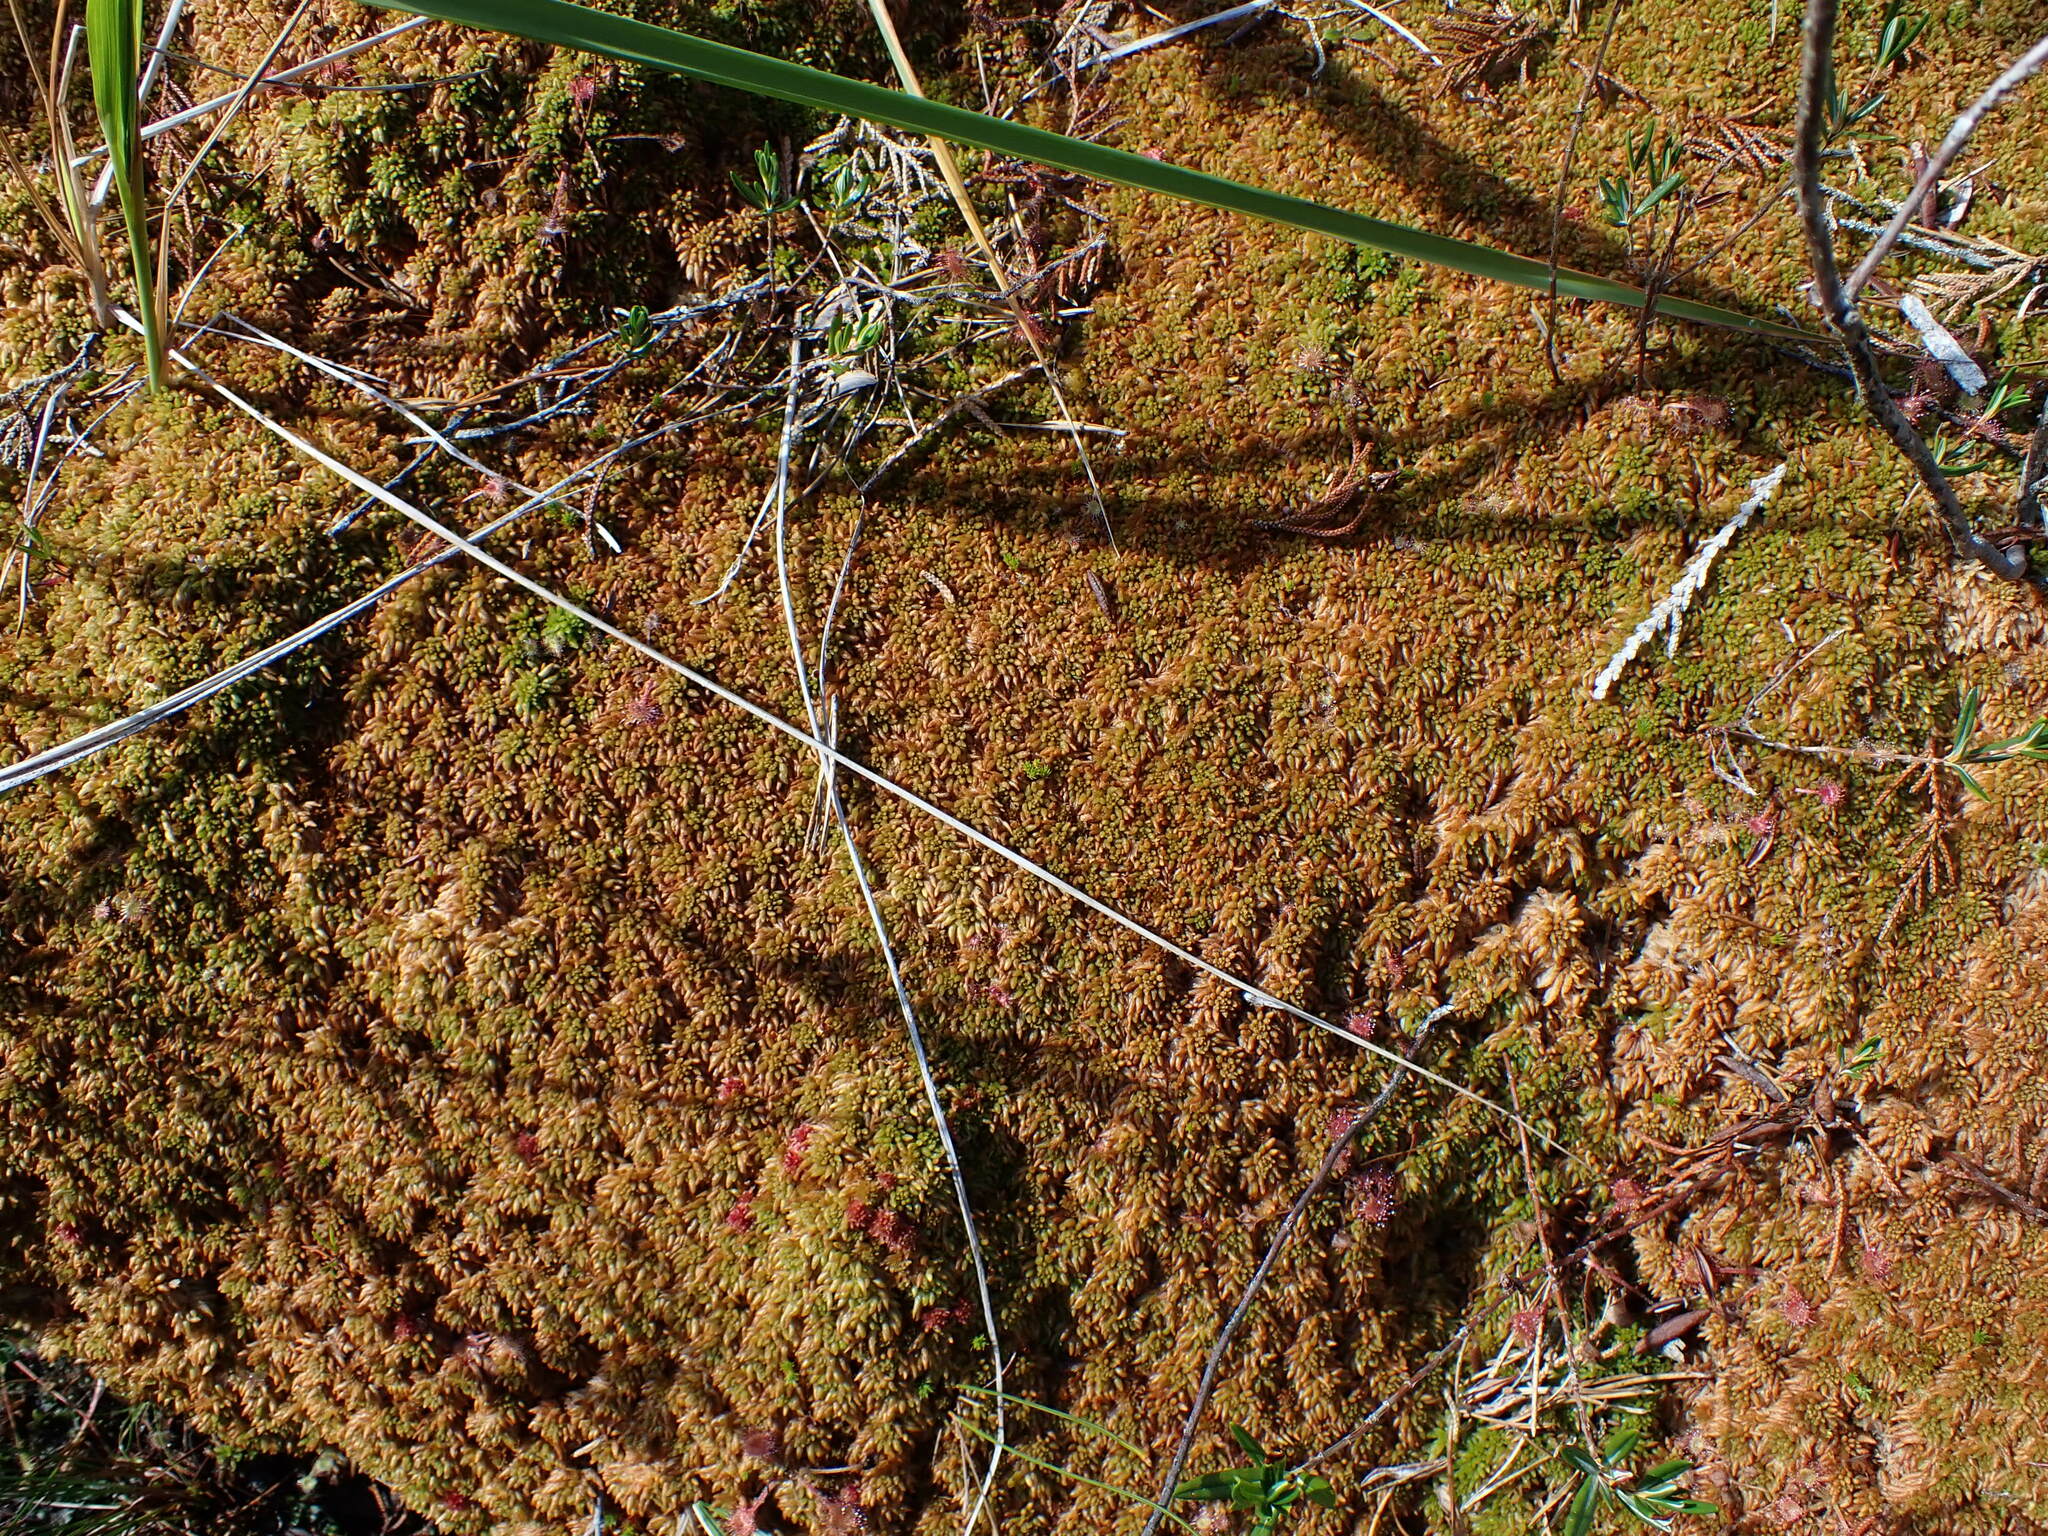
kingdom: Plantae
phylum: Bryophyta
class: Sphagnopsida
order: Sphagnales
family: Sphagnaceae
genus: Sphagnum
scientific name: Sphagnum austinii
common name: Austin's peat moss
